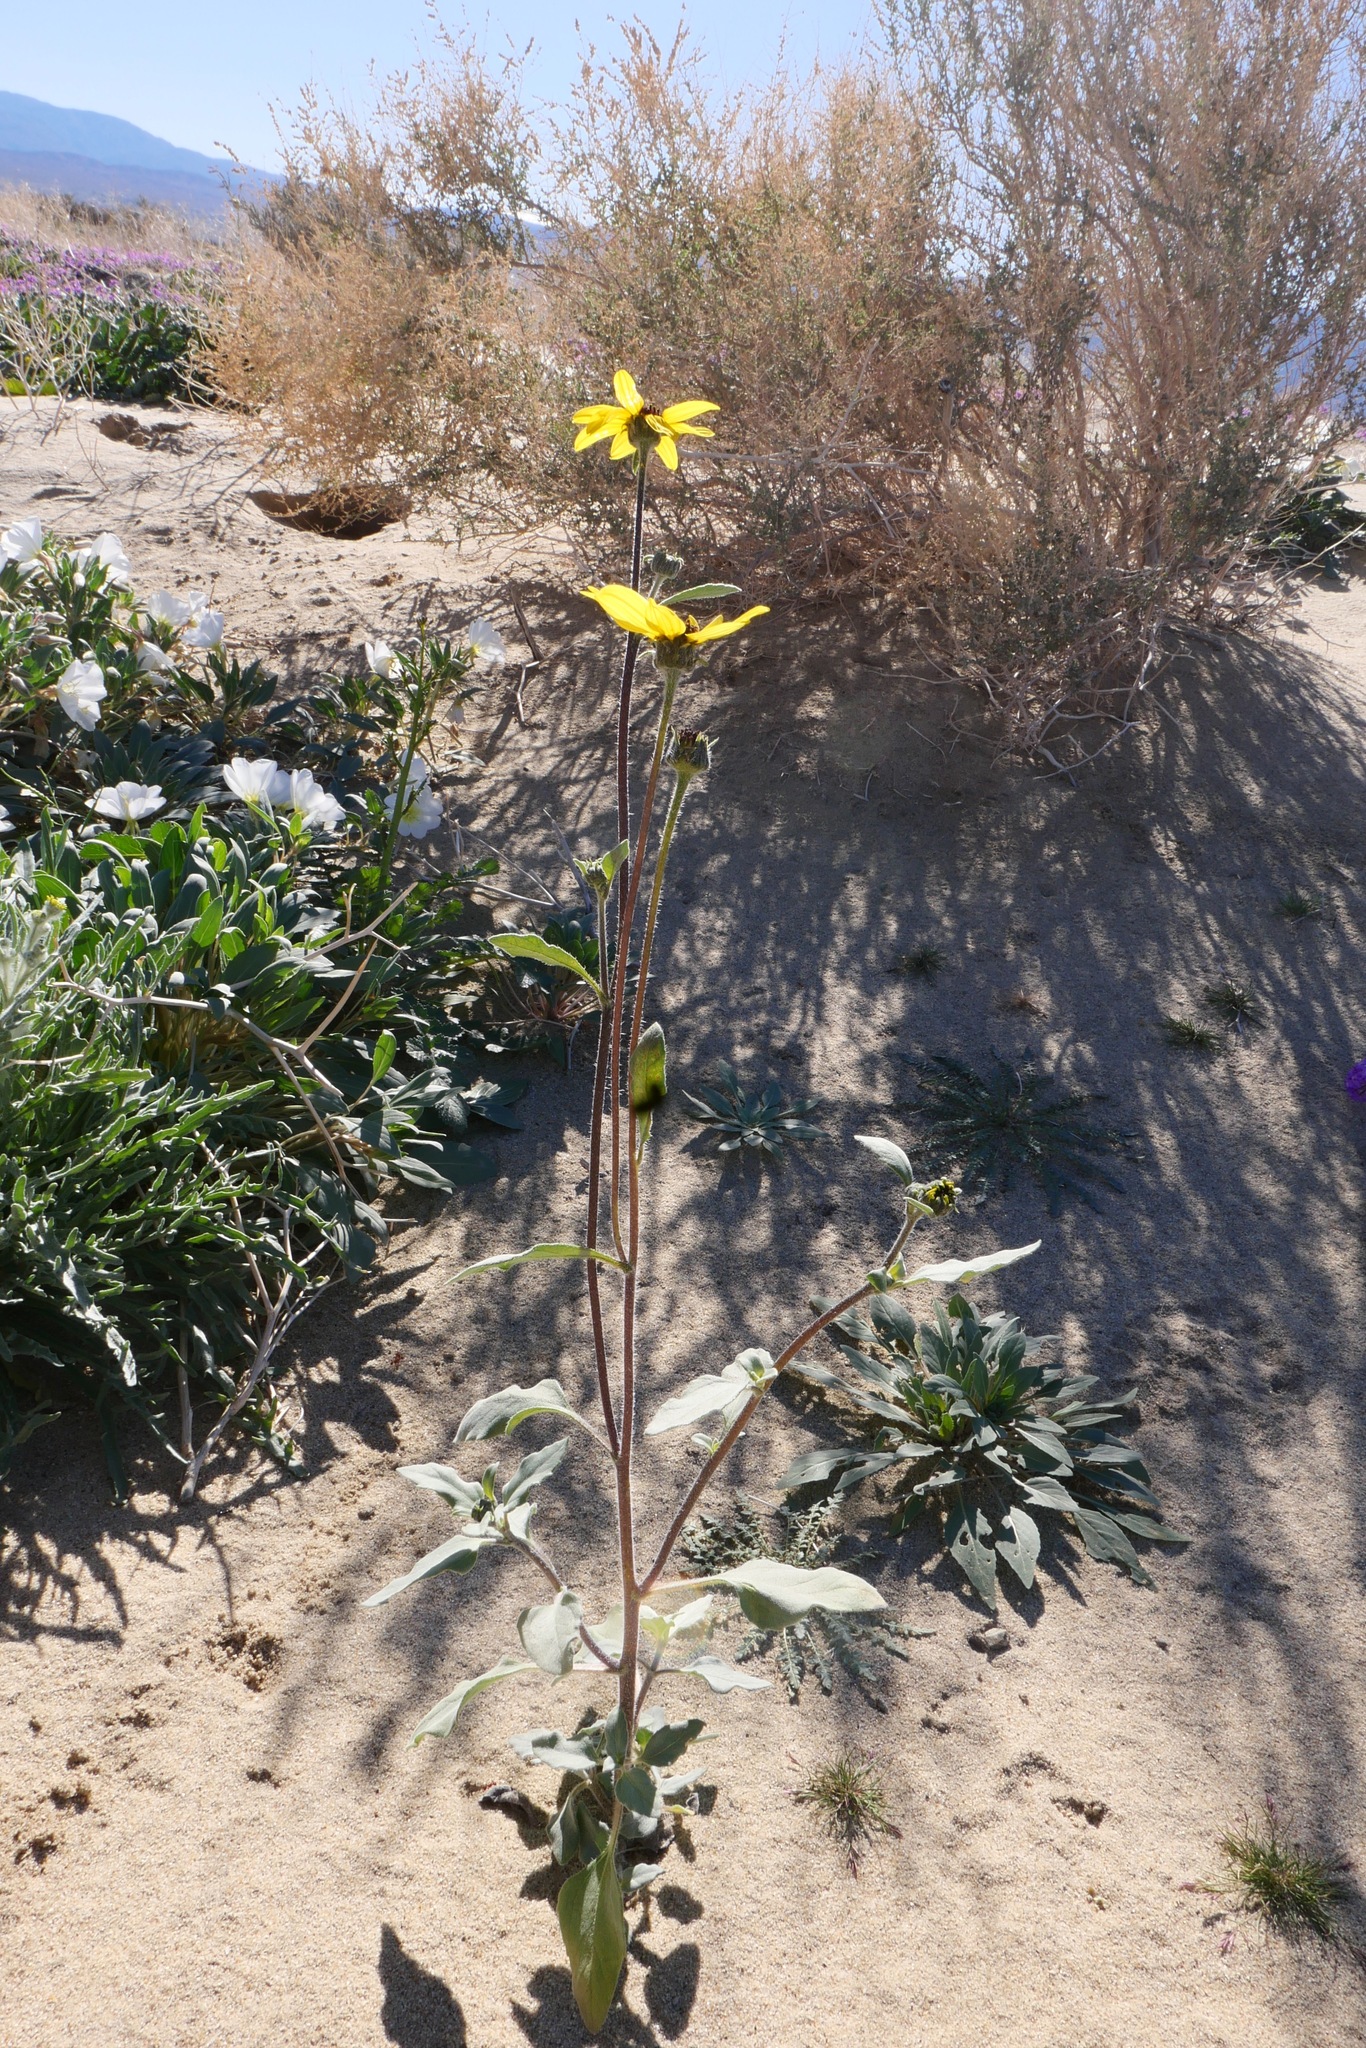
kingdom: Plantae
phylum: Tracheophyta
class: Magnoliopsida
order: Asterales
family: Asteraceae
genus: Helianthus
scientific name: Helianthus petiolaris
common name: Lesser sunflower
